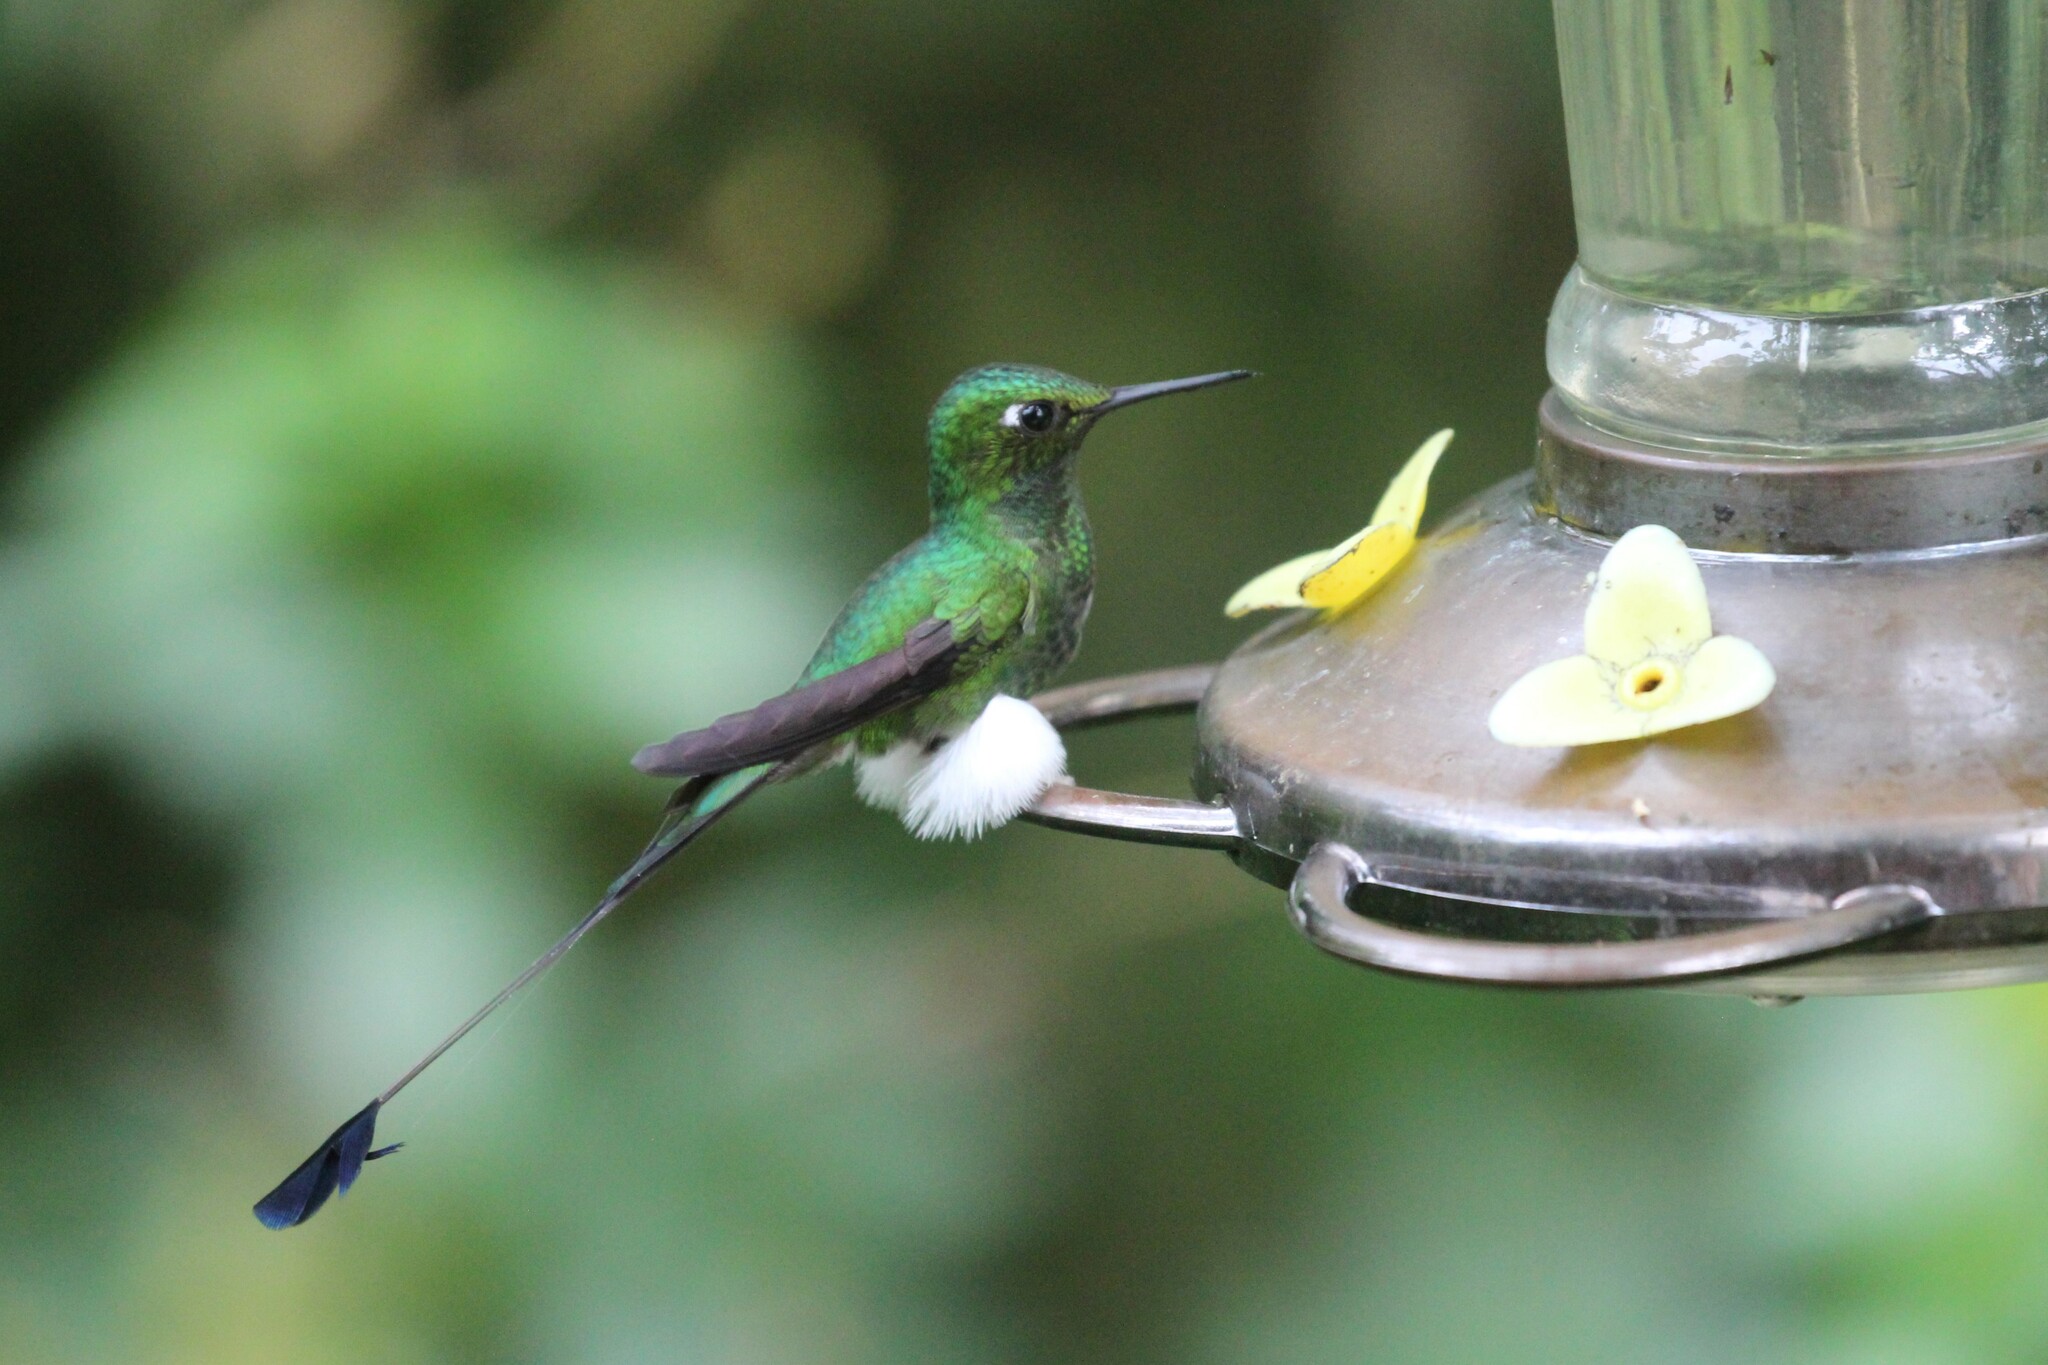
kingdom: Animalia
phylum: Chordata
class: Aves
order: Apodiformes
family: Trochilidae
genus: Ocreatus
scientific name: Ocreatus underwoodii
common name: Booted racket-tail
